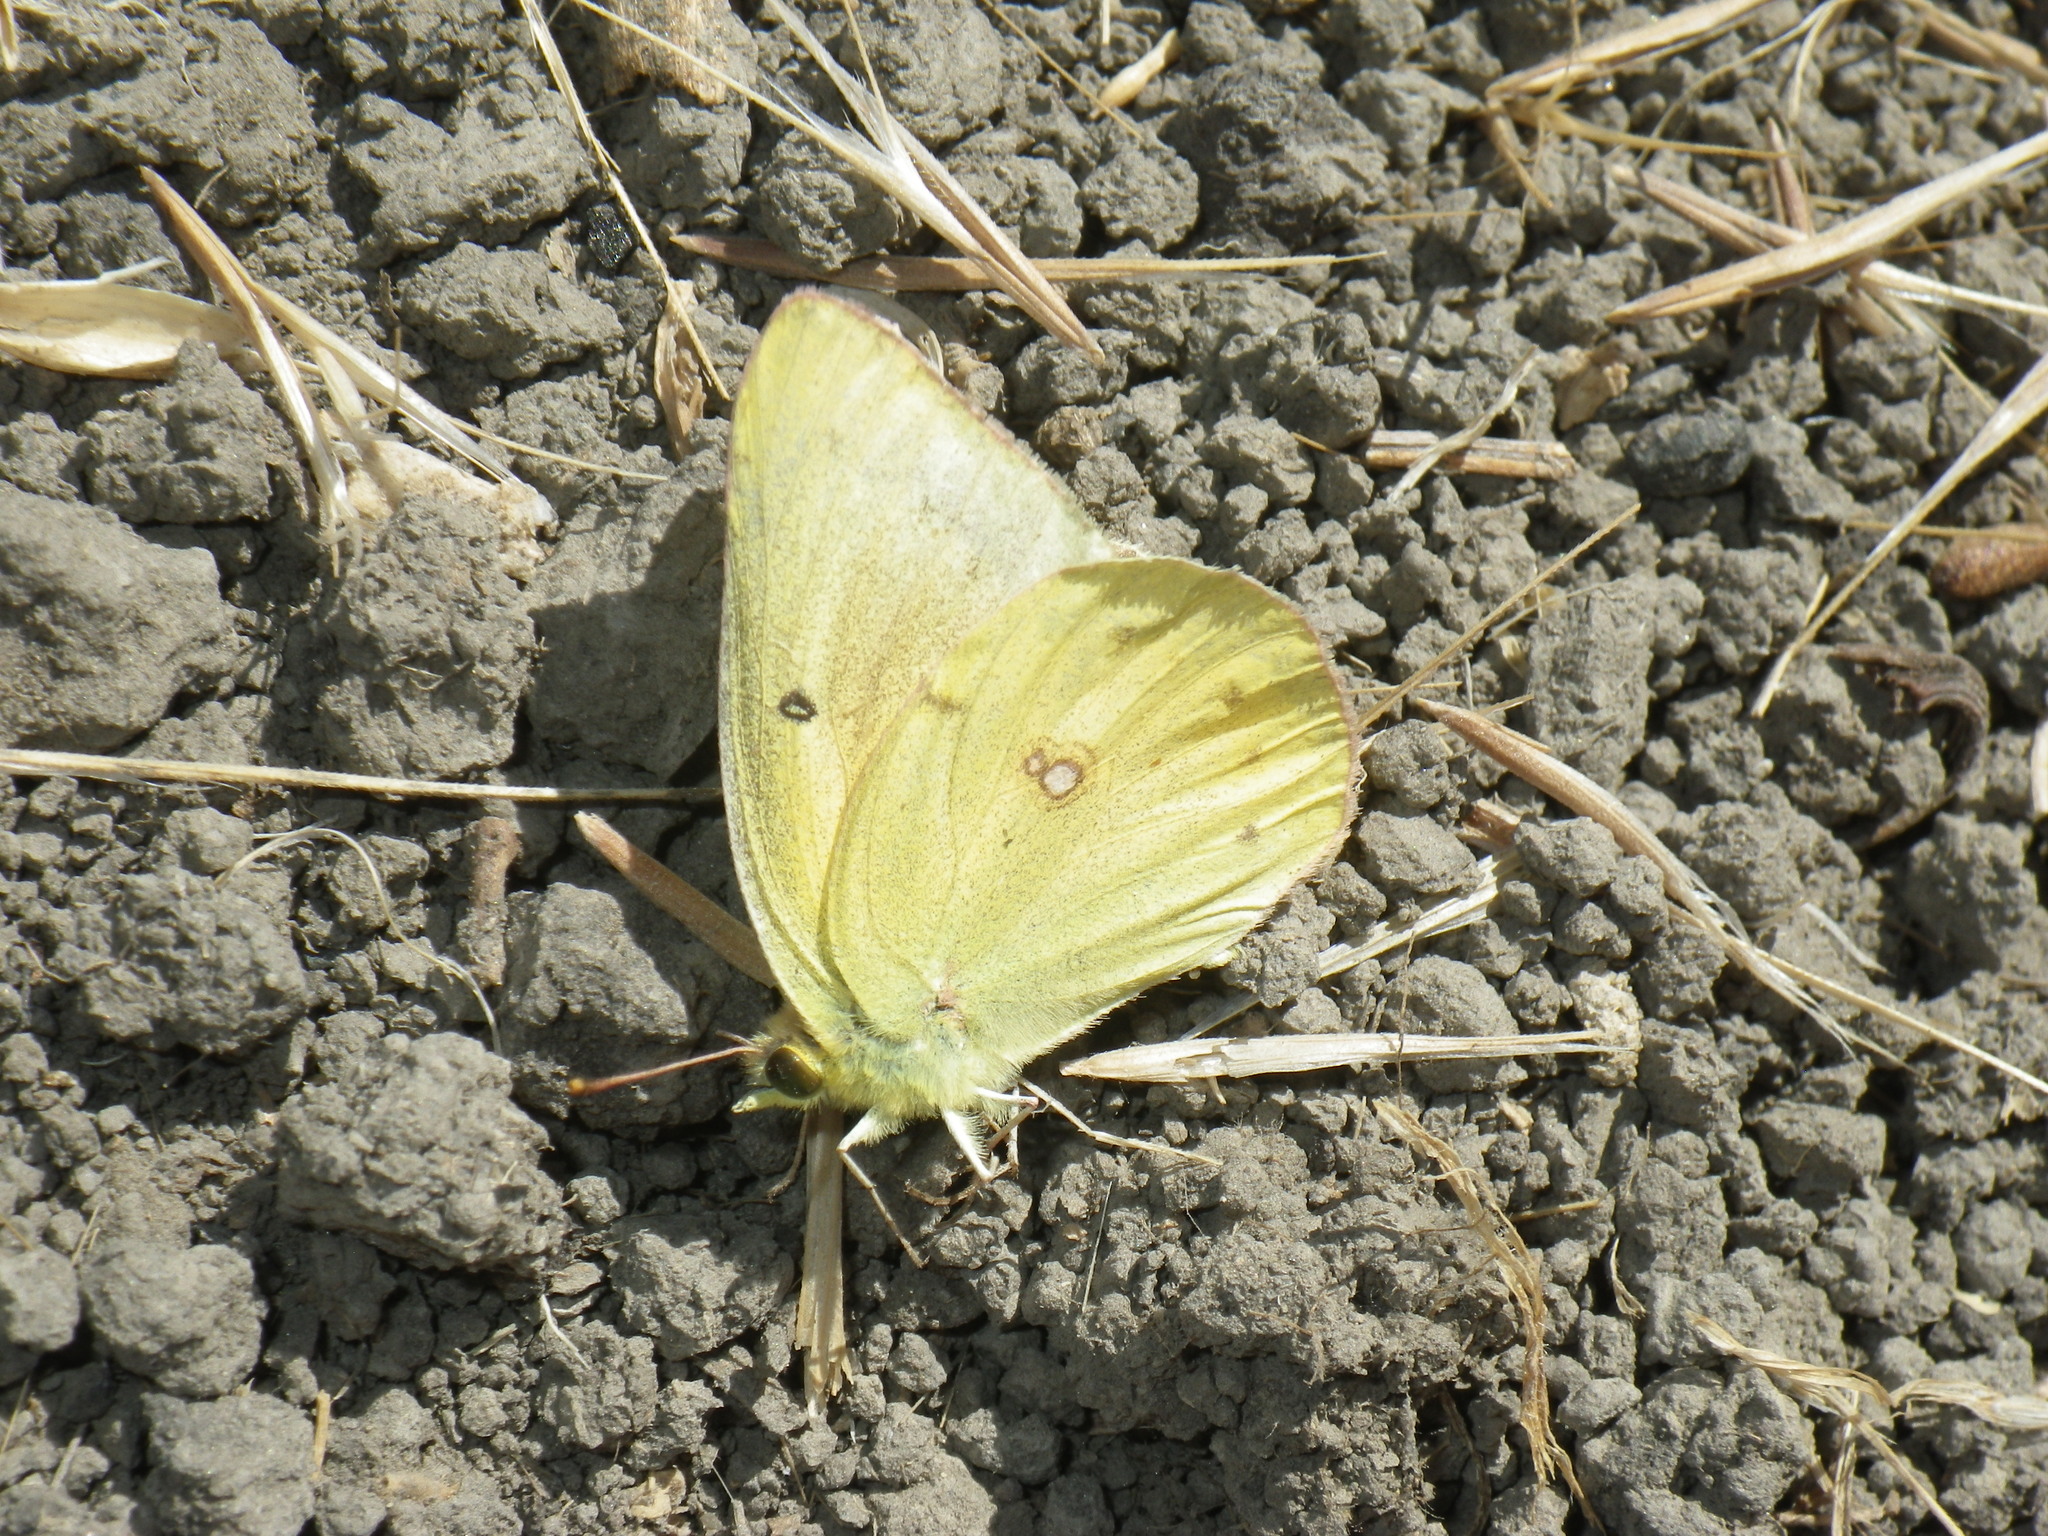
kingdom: Animalia
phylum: Arthropoda
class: Insecta
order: Lepidoptera
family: Pieridae
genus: Colias
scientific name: Colias eurytheme
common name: Alfalfa butterfly
